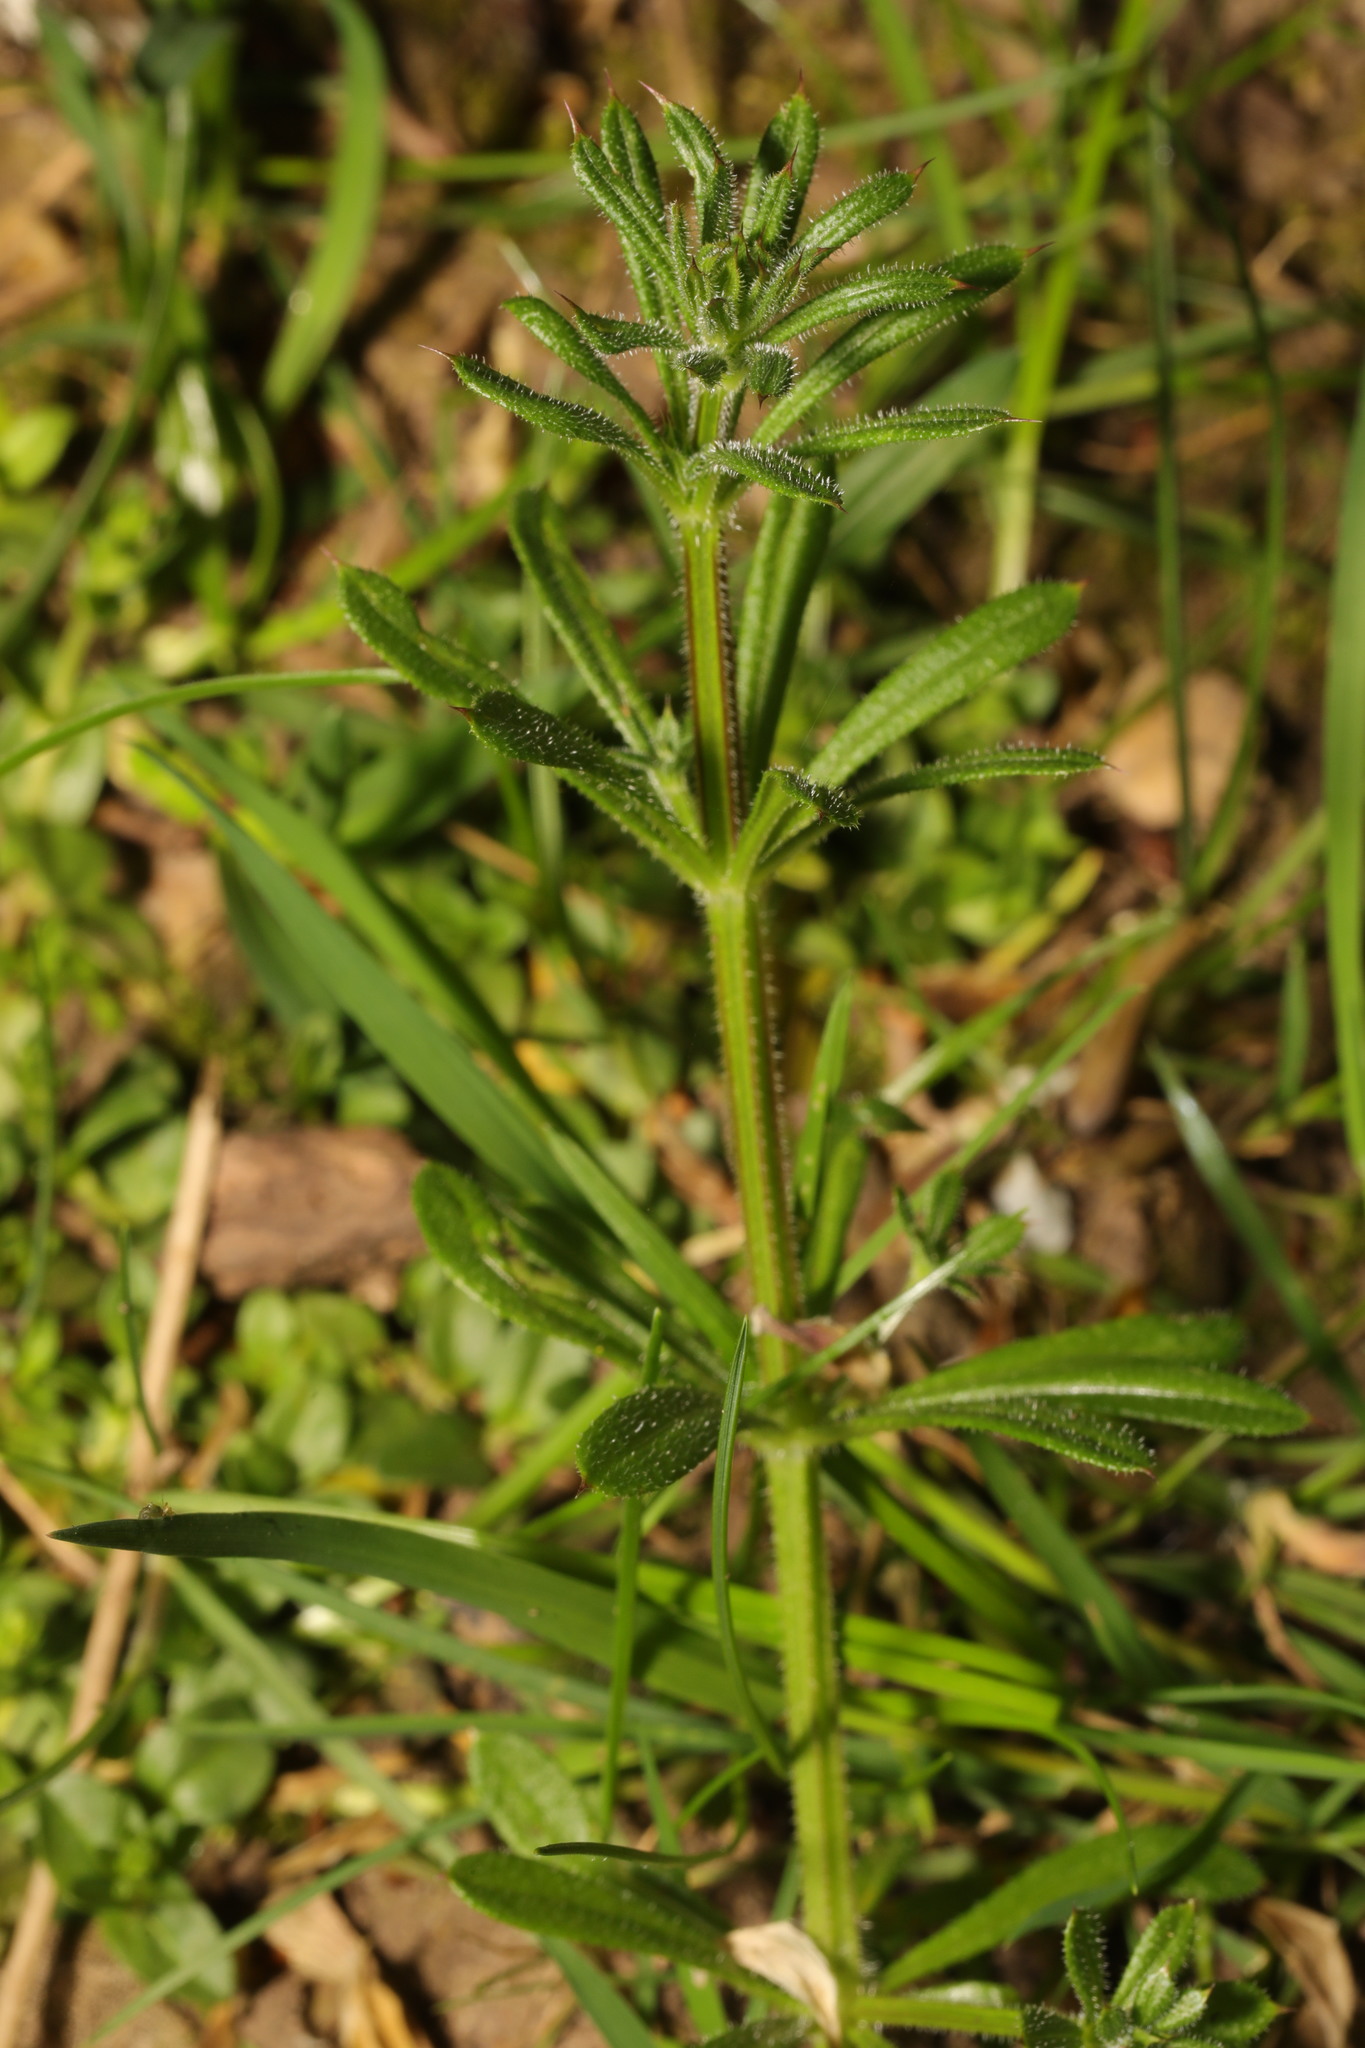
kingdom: Plantae
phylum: Tracheophyta
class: Magnoliopsida
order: Gentianales
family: Rubiaceae
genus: Galium
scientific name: Galium aparine
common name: Cleavers
